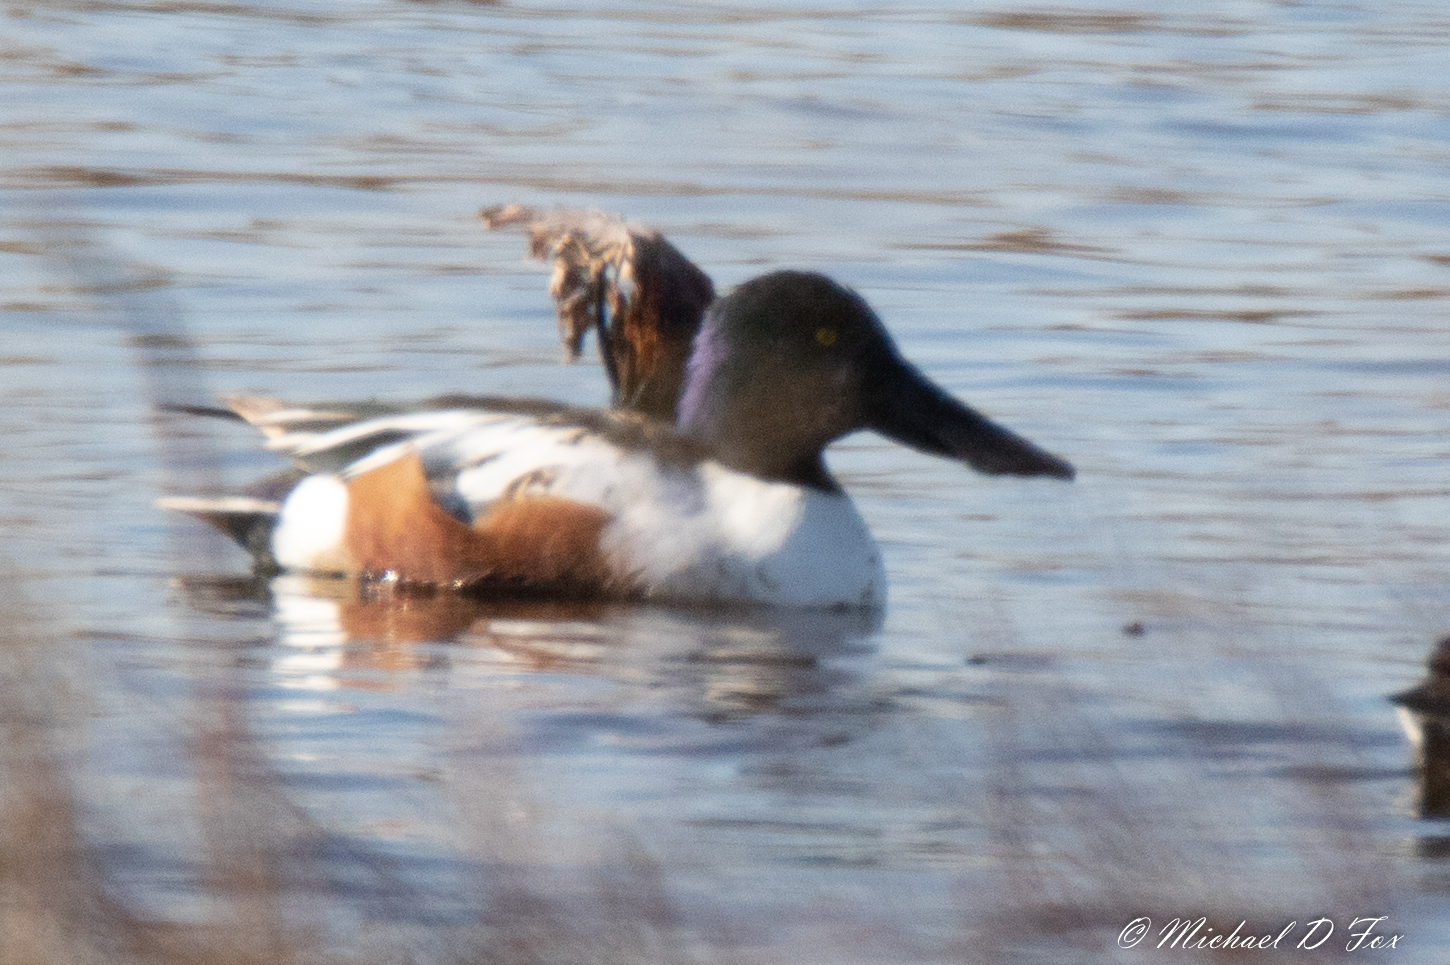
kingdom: Animalia
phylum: Chordata
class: Aves
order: Anseriformes
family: Anatidae
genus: Spatula
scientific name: Spatula clypeata
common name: Northern shoveler
